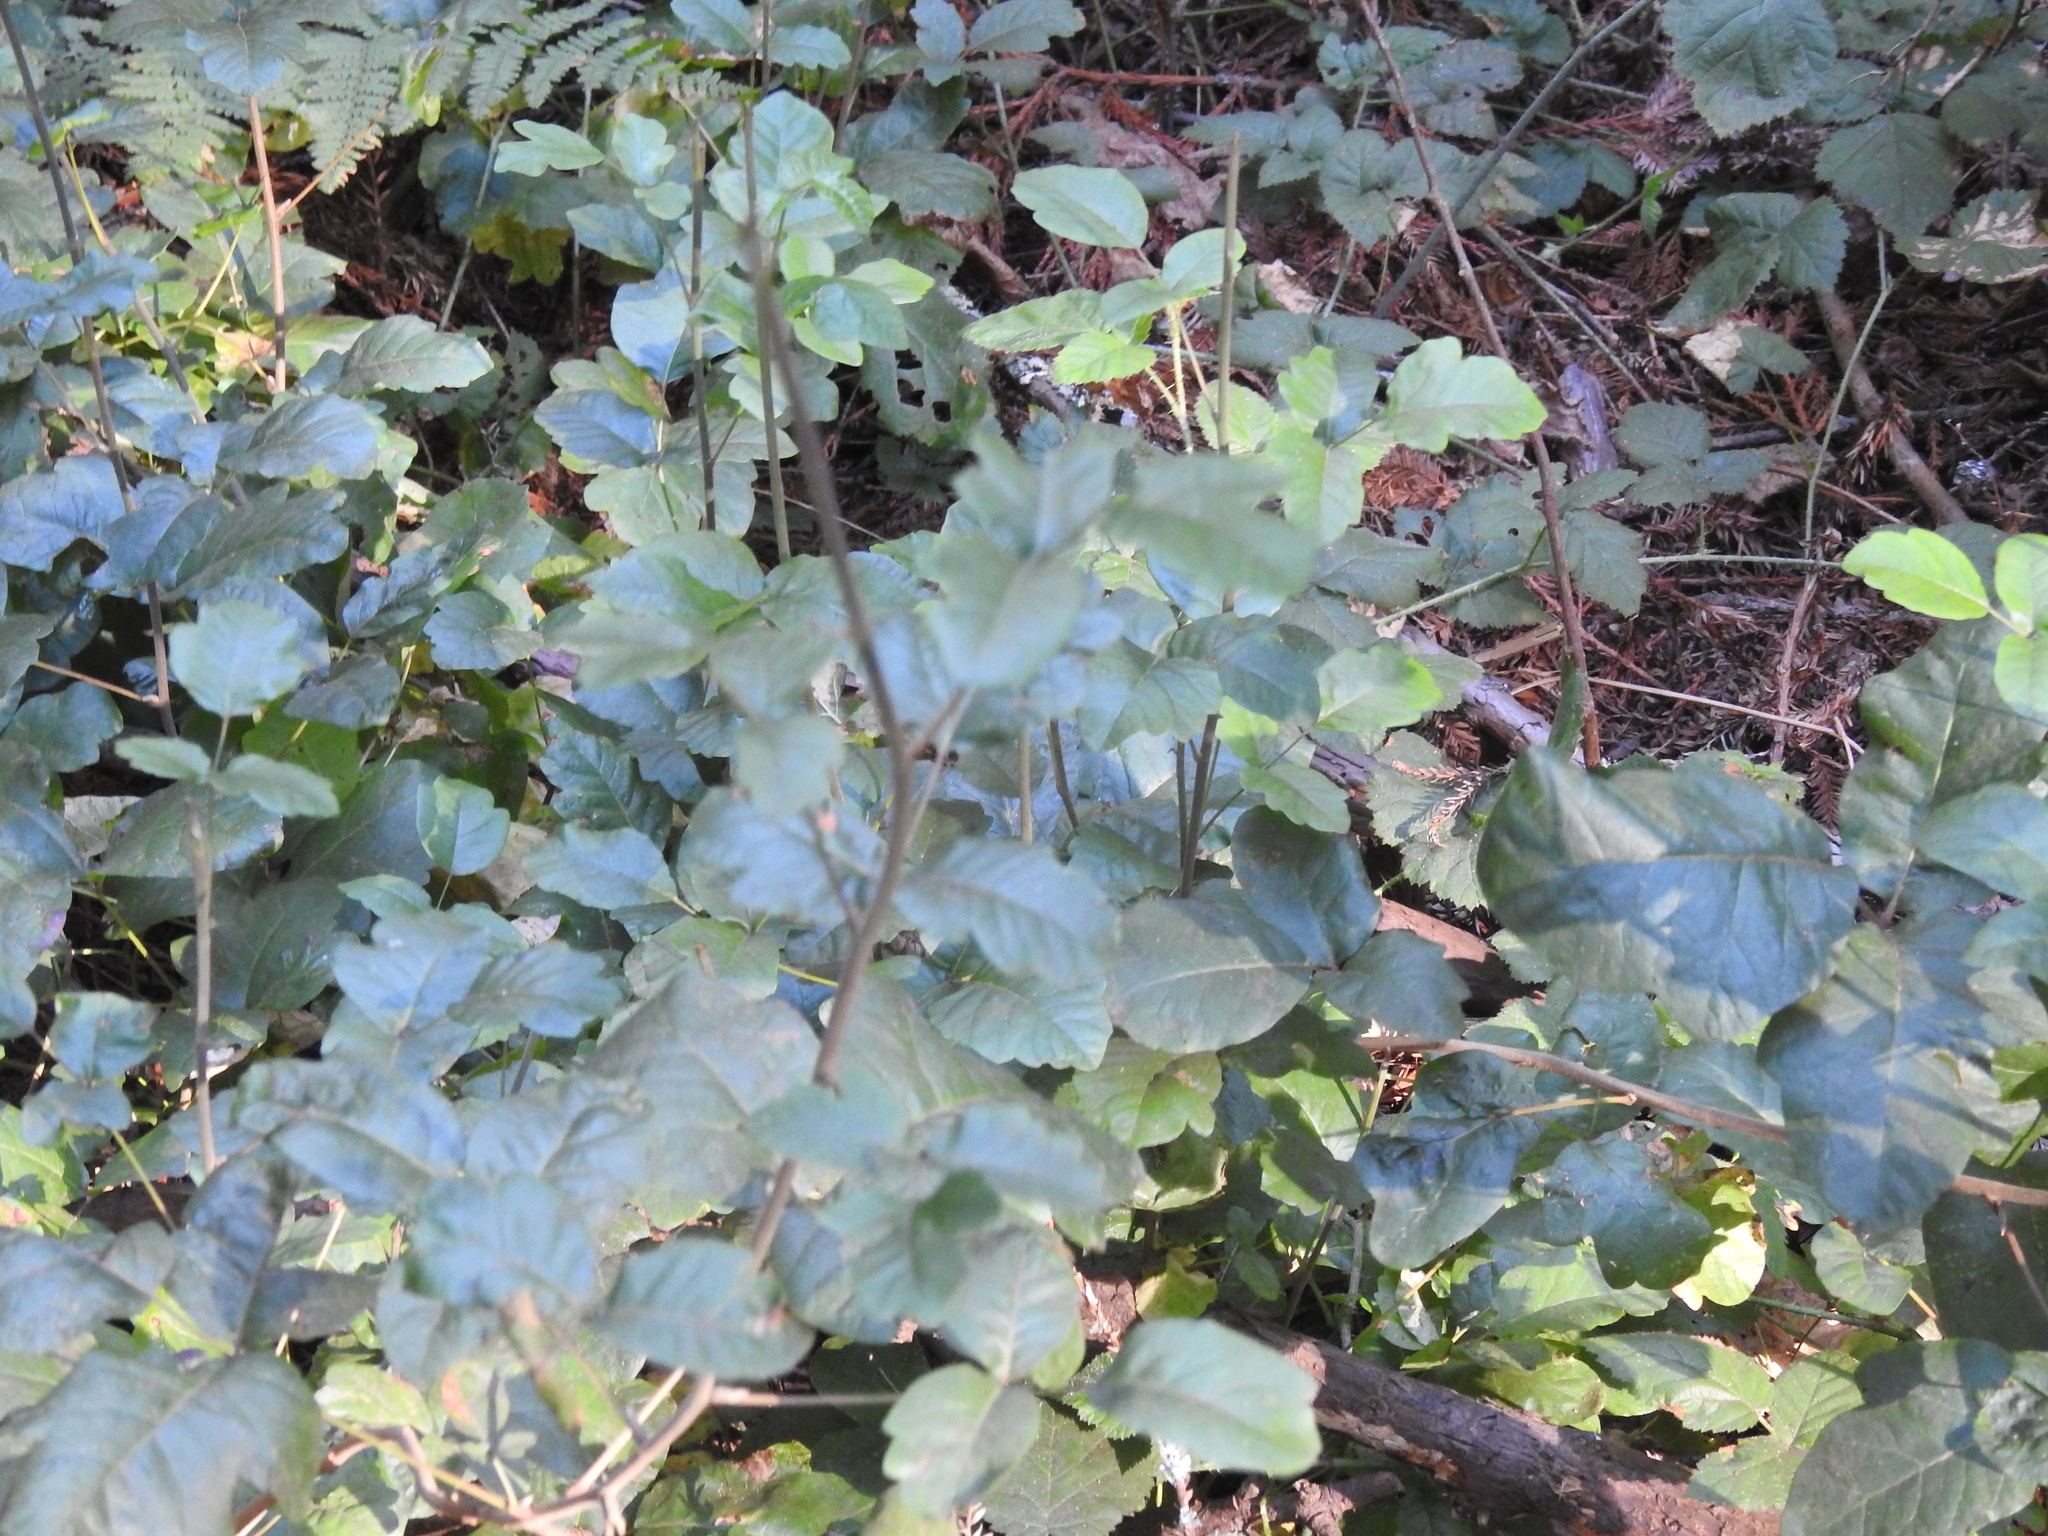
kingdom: Plantae
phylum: Tracheophyta
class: Magnoliopsida
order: Sapindales
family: Anacardiaceae
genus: Toxicodendron
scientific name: Toxicodendron diversilobum
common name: Pacific poison-oak
